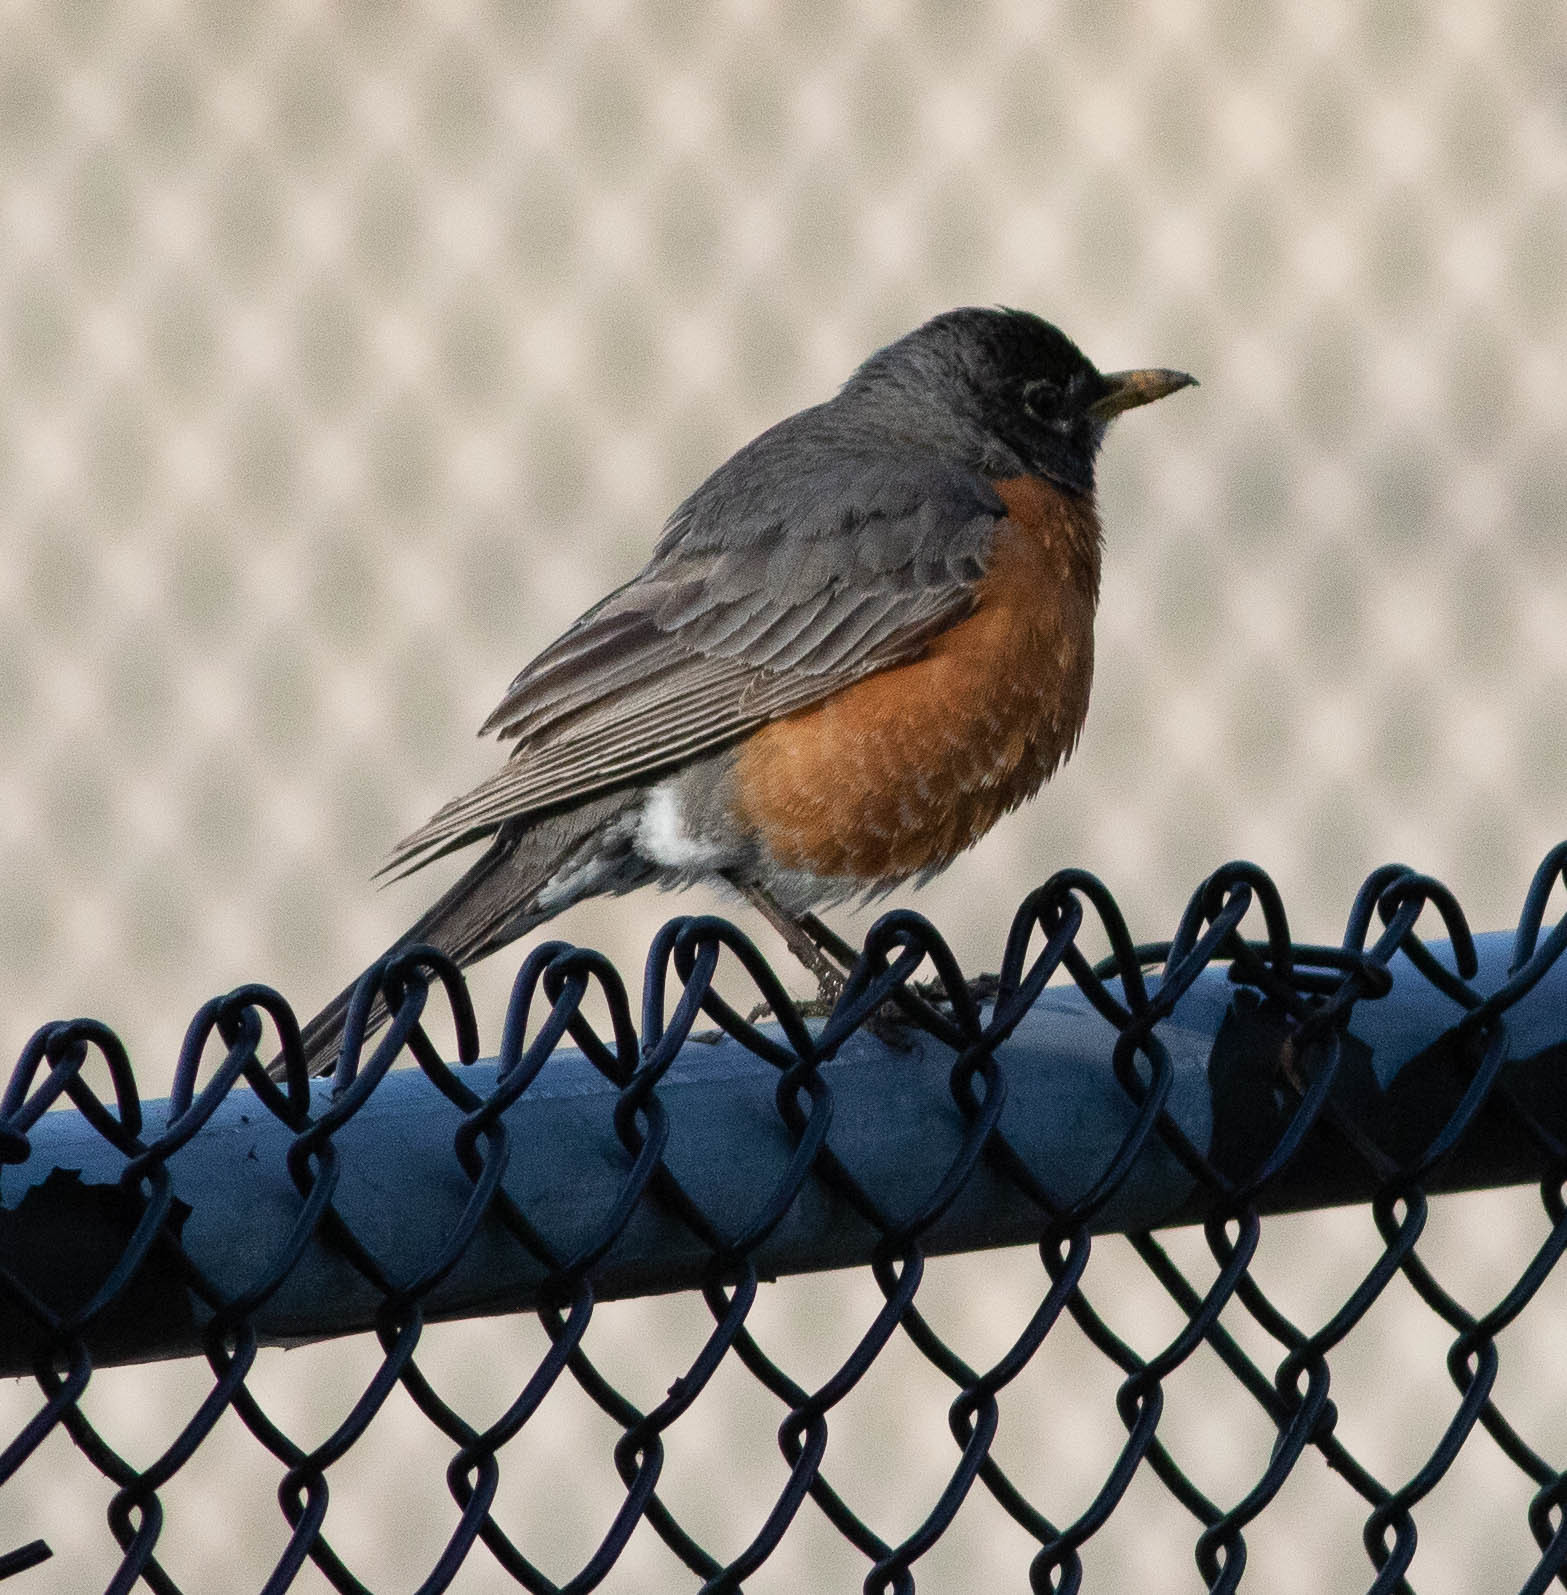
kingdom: Animalia
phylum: Chordata
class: Aves
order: Passeriformes
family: Turdidae
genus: Turdus
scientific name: Turdus migratorius
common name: American robin
